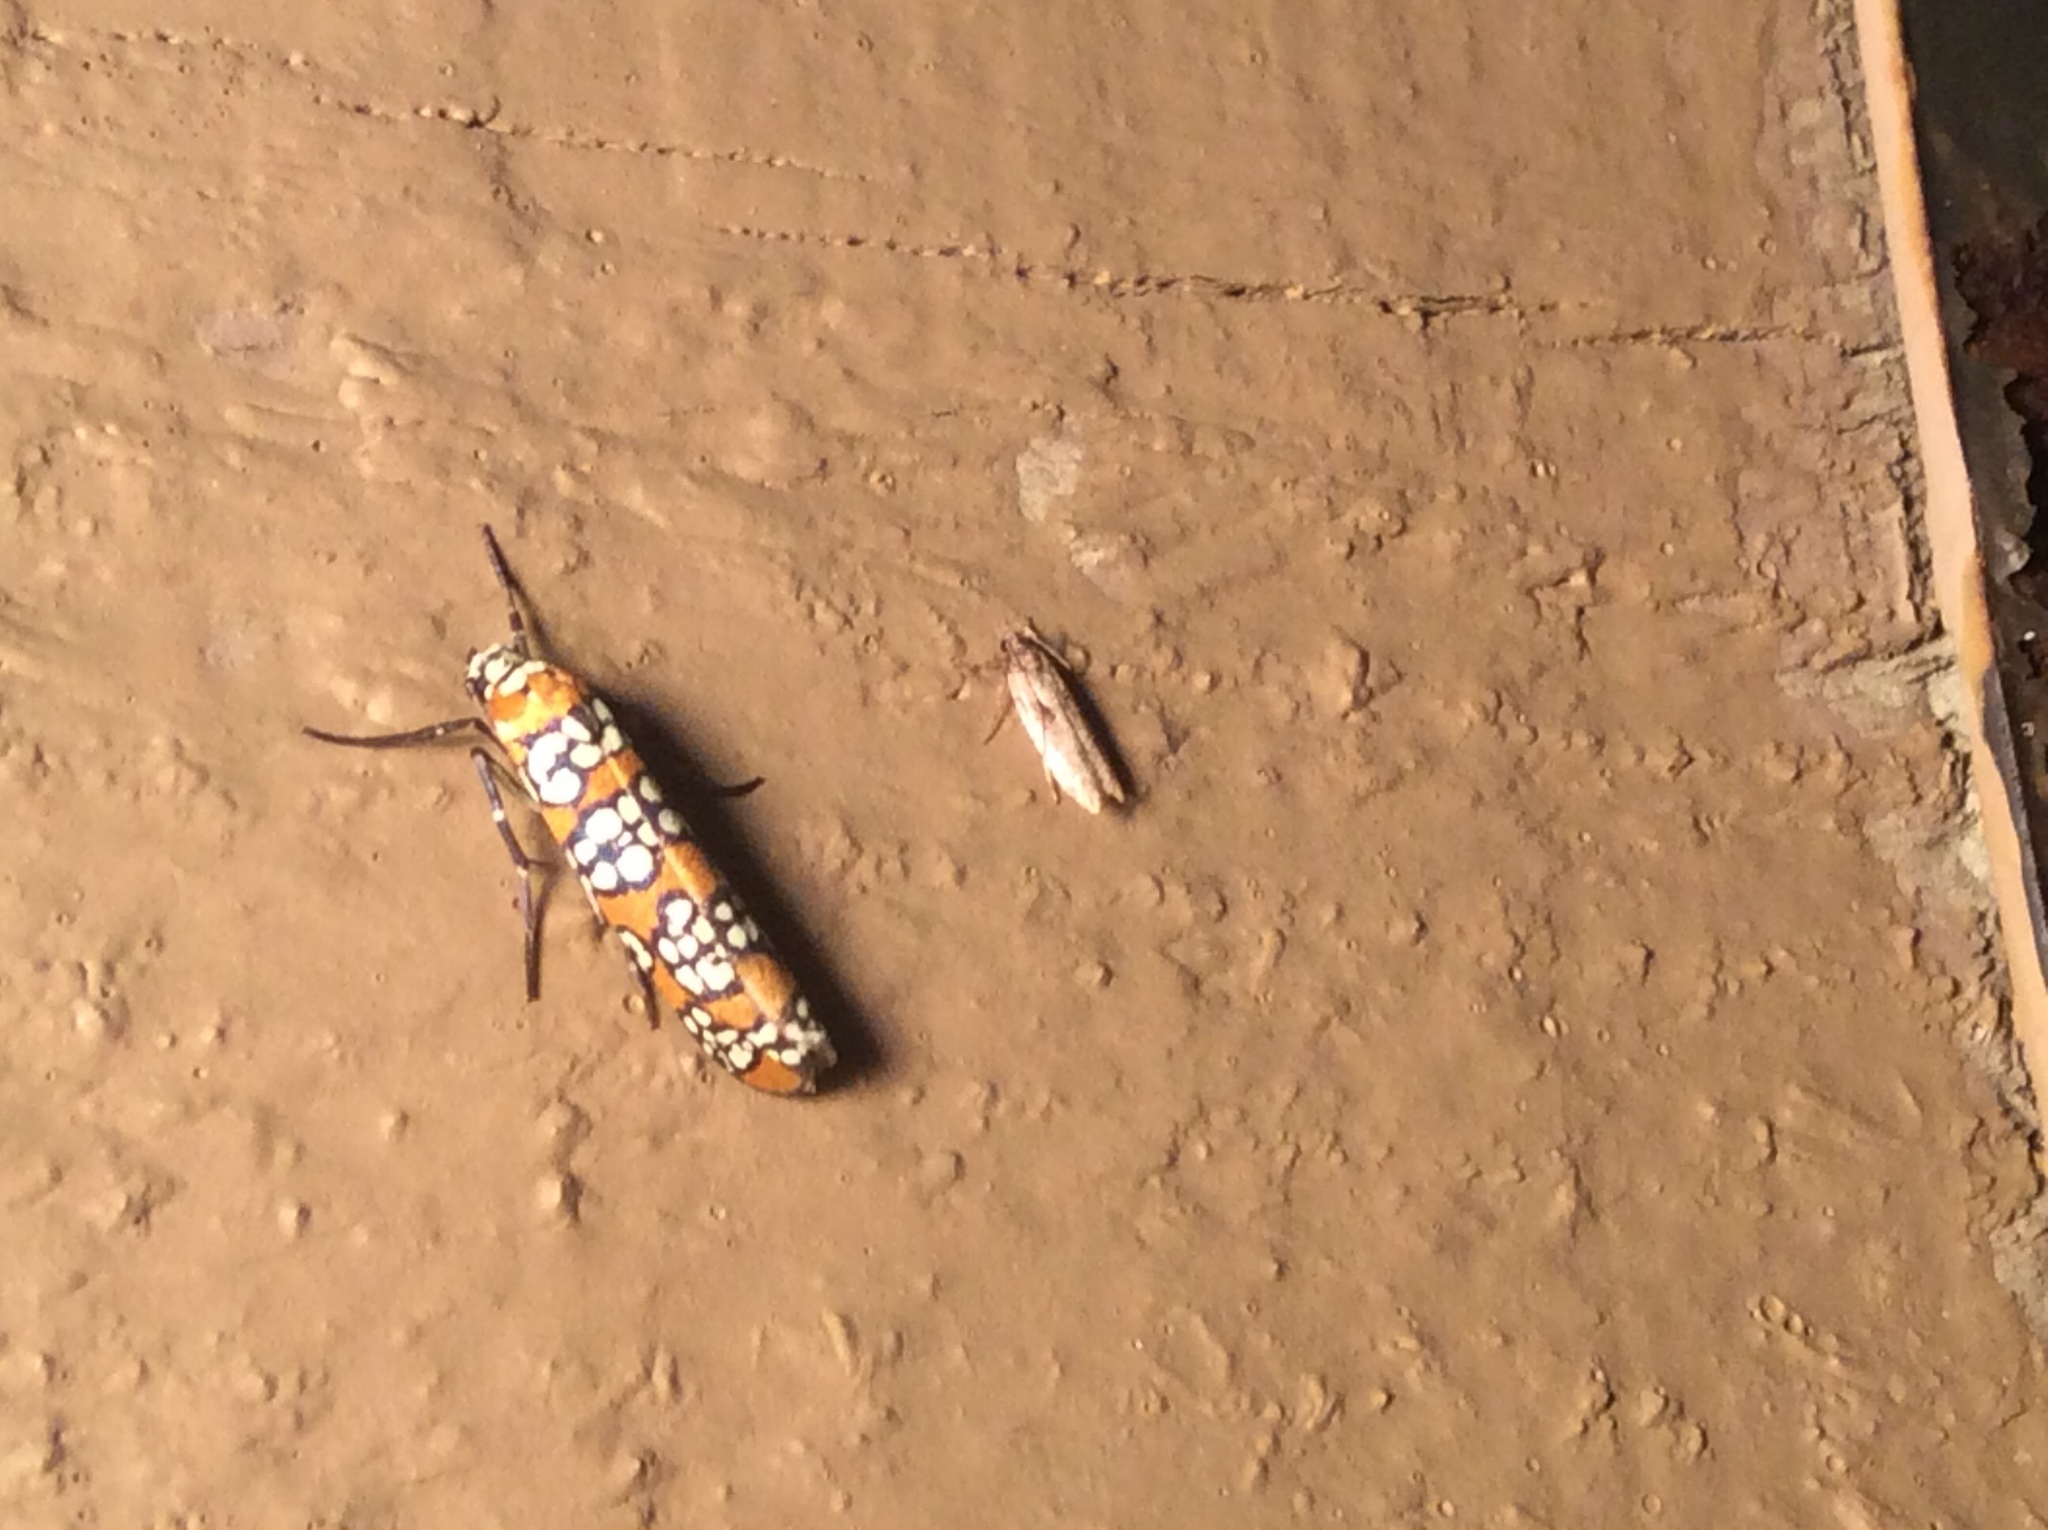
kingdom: Animalia
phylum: Arthropoda
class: Insecta
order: Lepidoptera
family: Attevidae
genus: Atteva
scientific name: Atteva punctella
